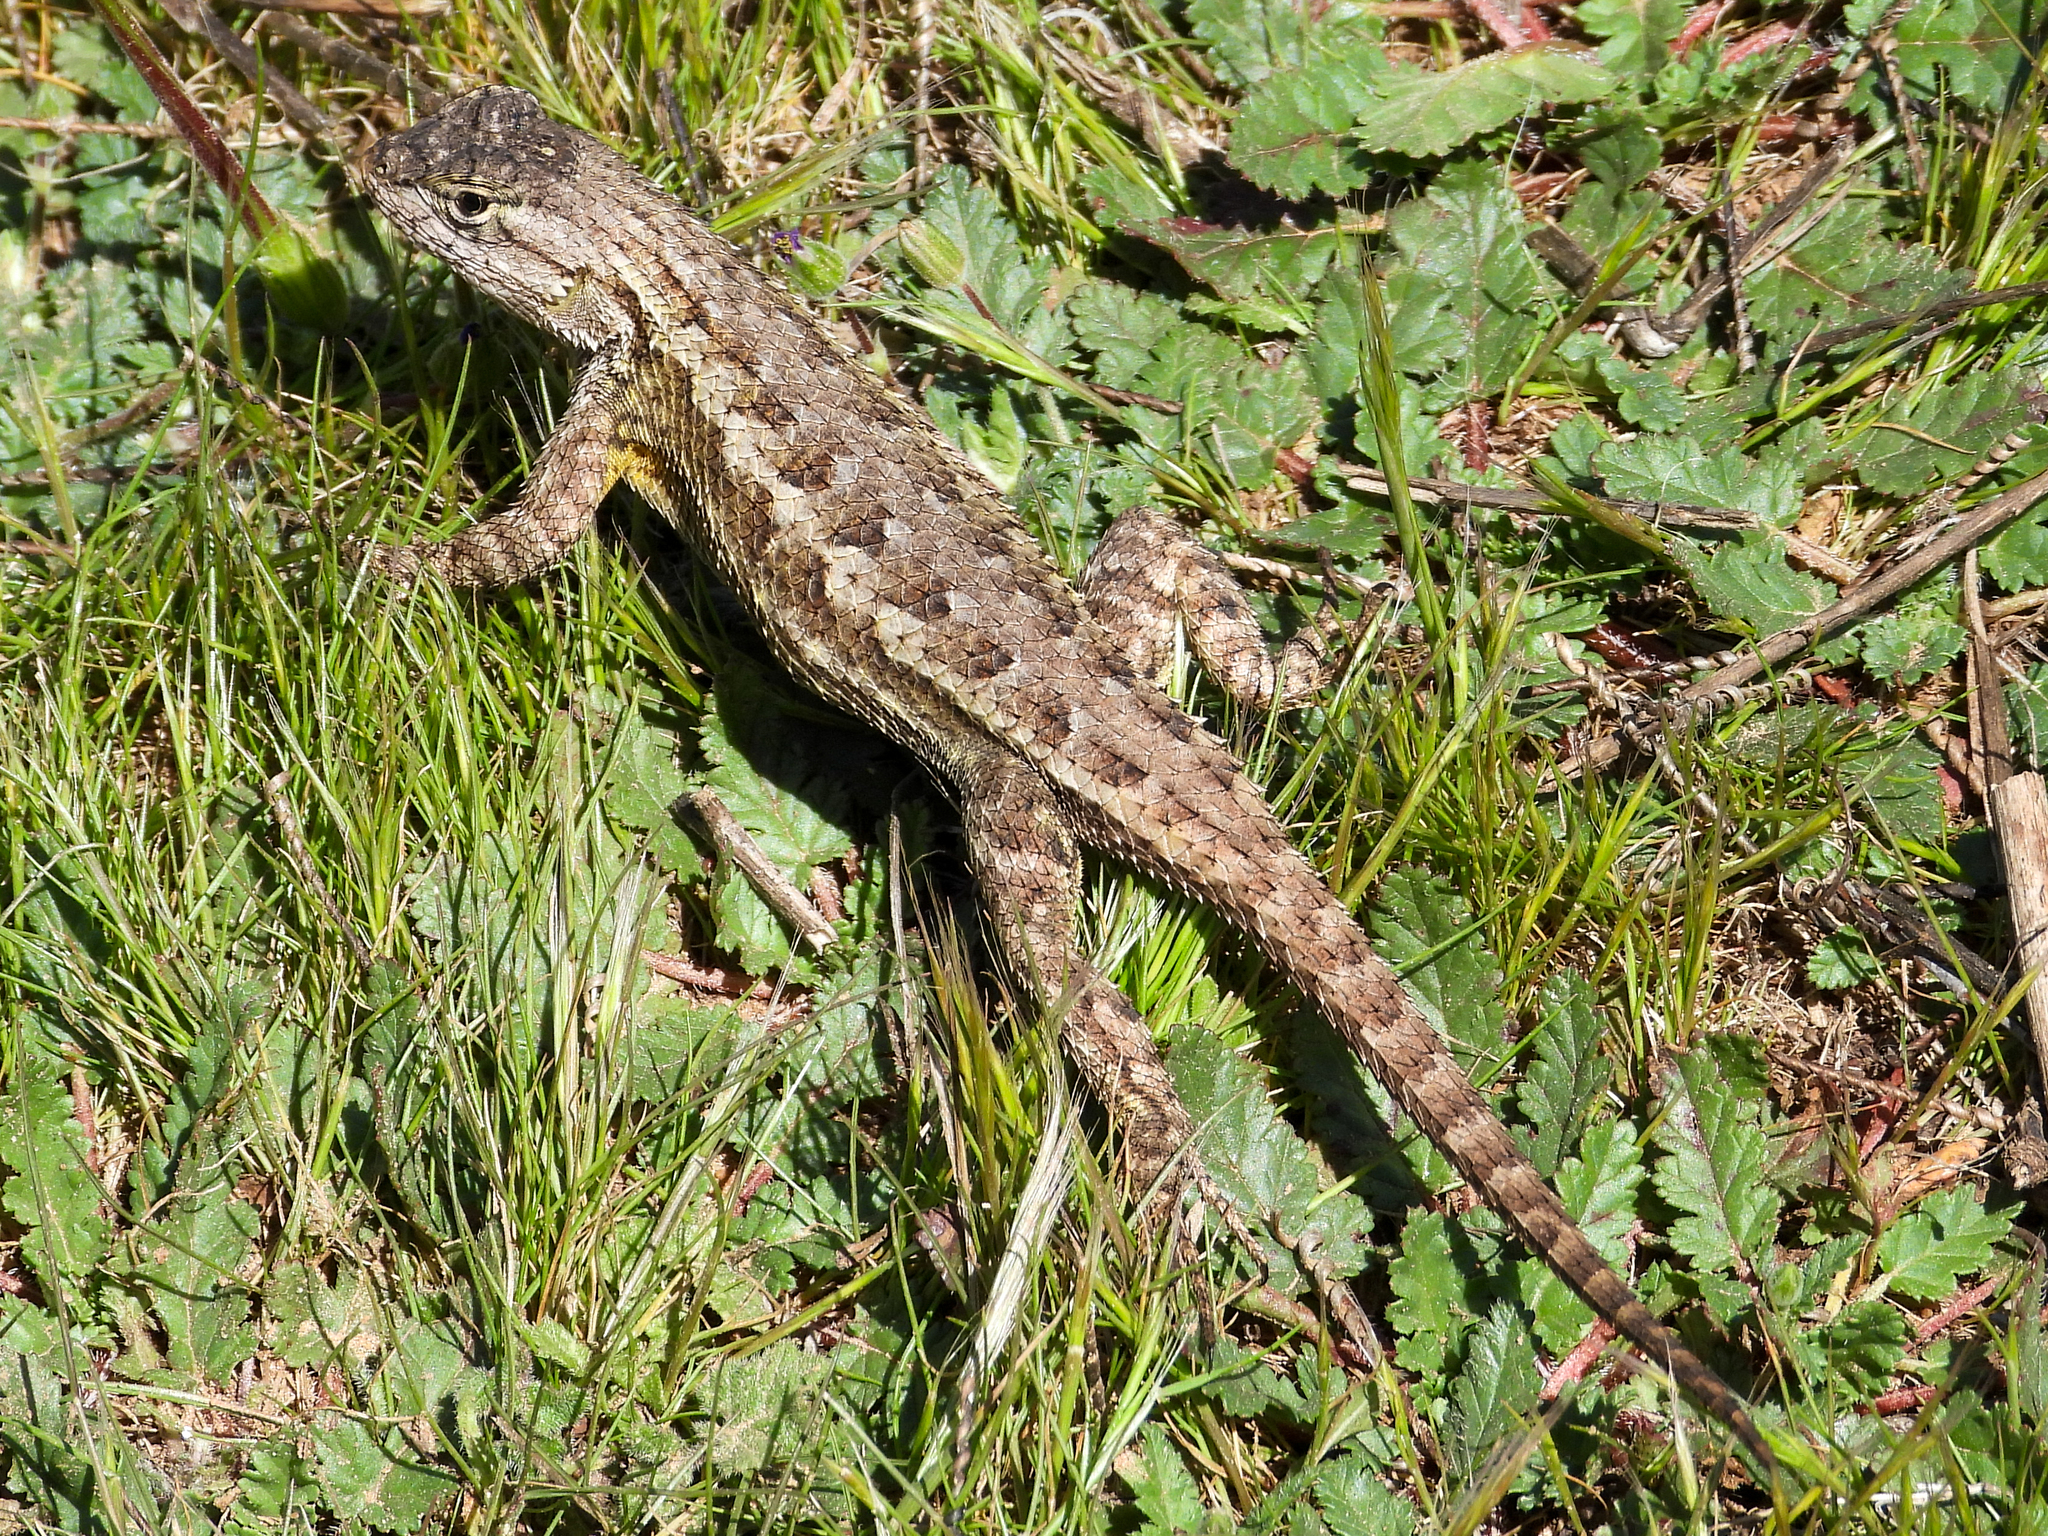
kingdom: Animalia
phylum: Chordata
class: Squamata
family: Phrynosomatidae
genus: Sceloporus
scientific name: Sceloporus occidentalis
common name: Western fence lizard
